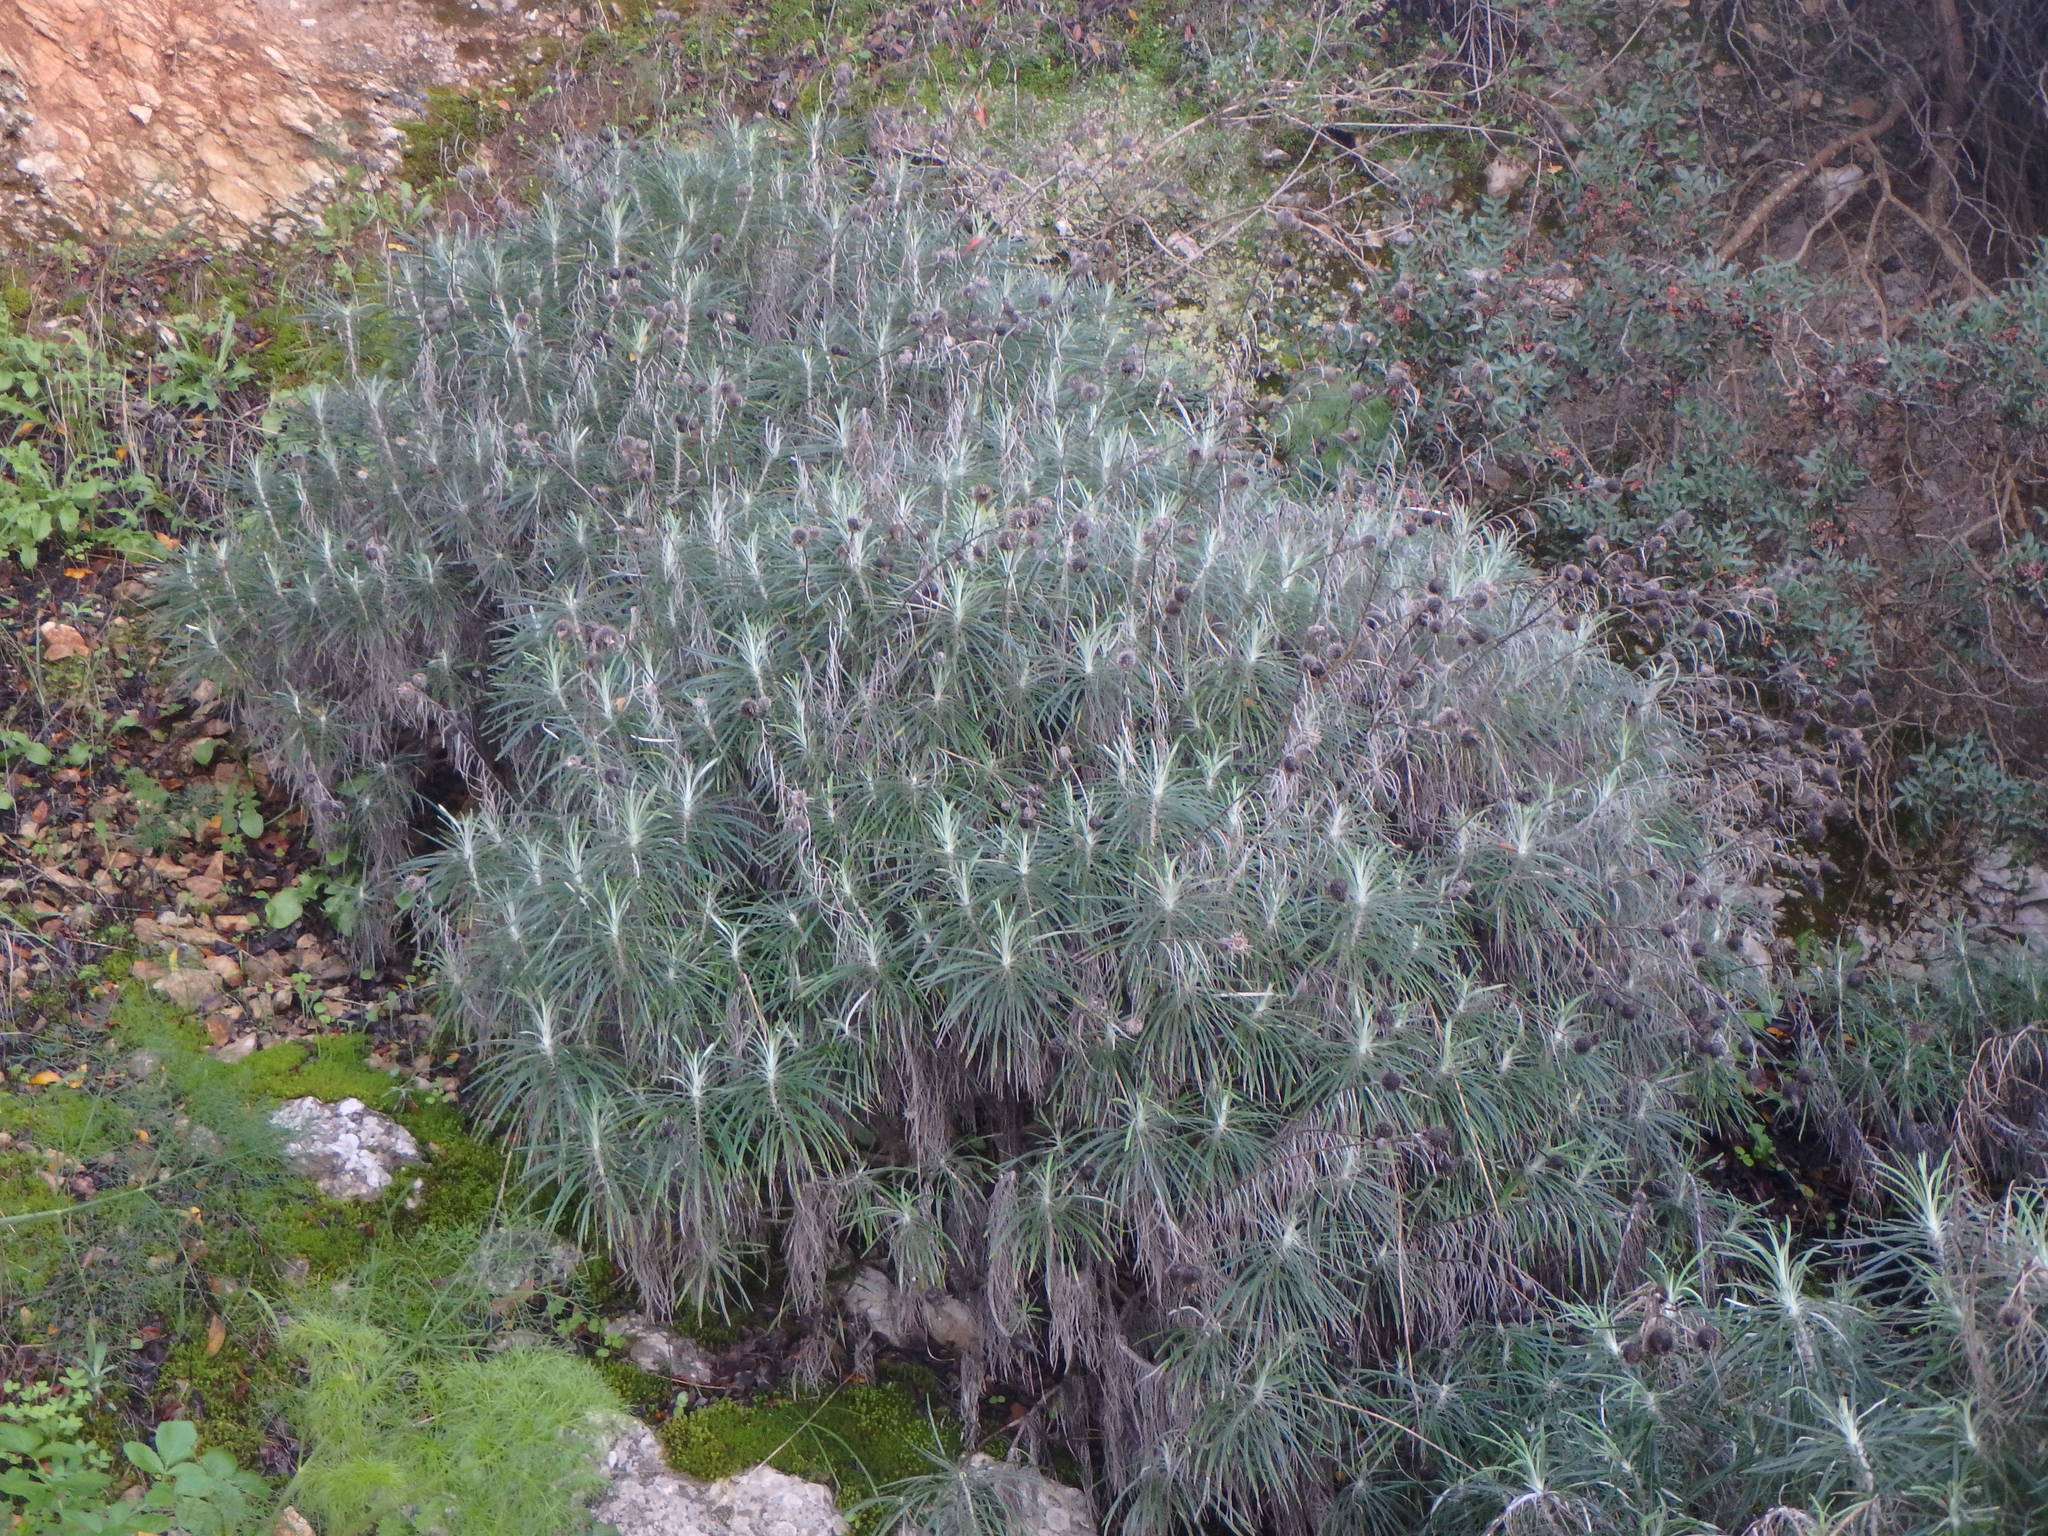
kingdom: Plantae
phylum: Tracheophyta
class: Magnoliopsida
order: Asterales
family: Asteraceae
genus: Ptilostemon
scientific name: Ptilostemon chamaepeuce
